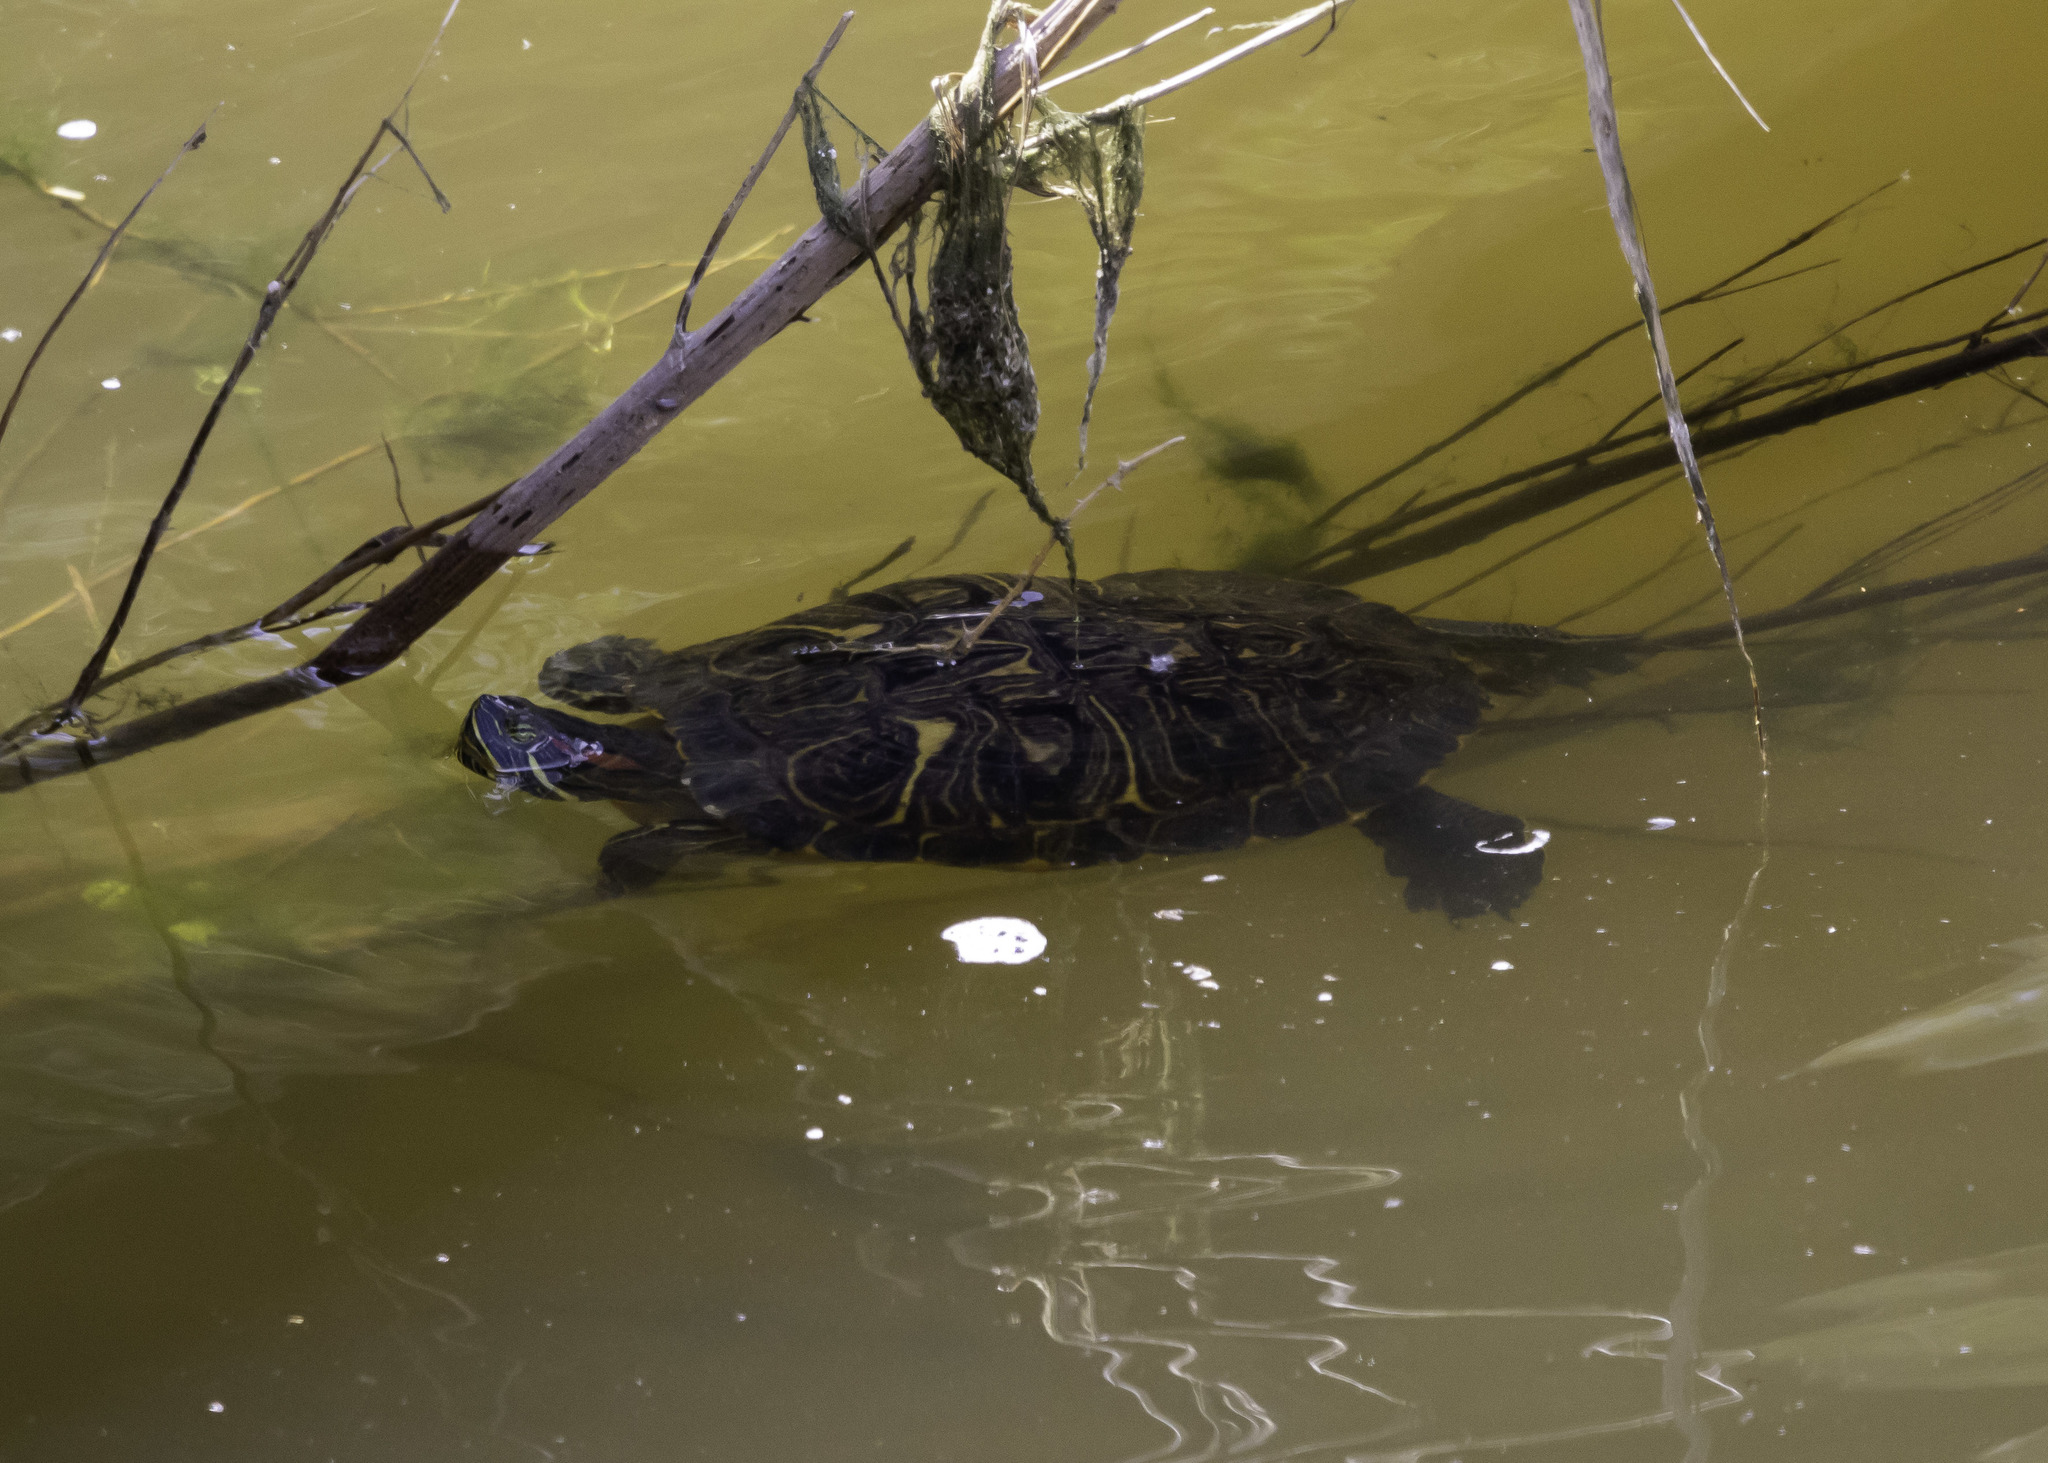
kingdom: Animalia
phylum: Chordata
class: Testudines
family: Emydidae
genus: Trachemys
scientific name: Trachemys scripta
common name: Slider
